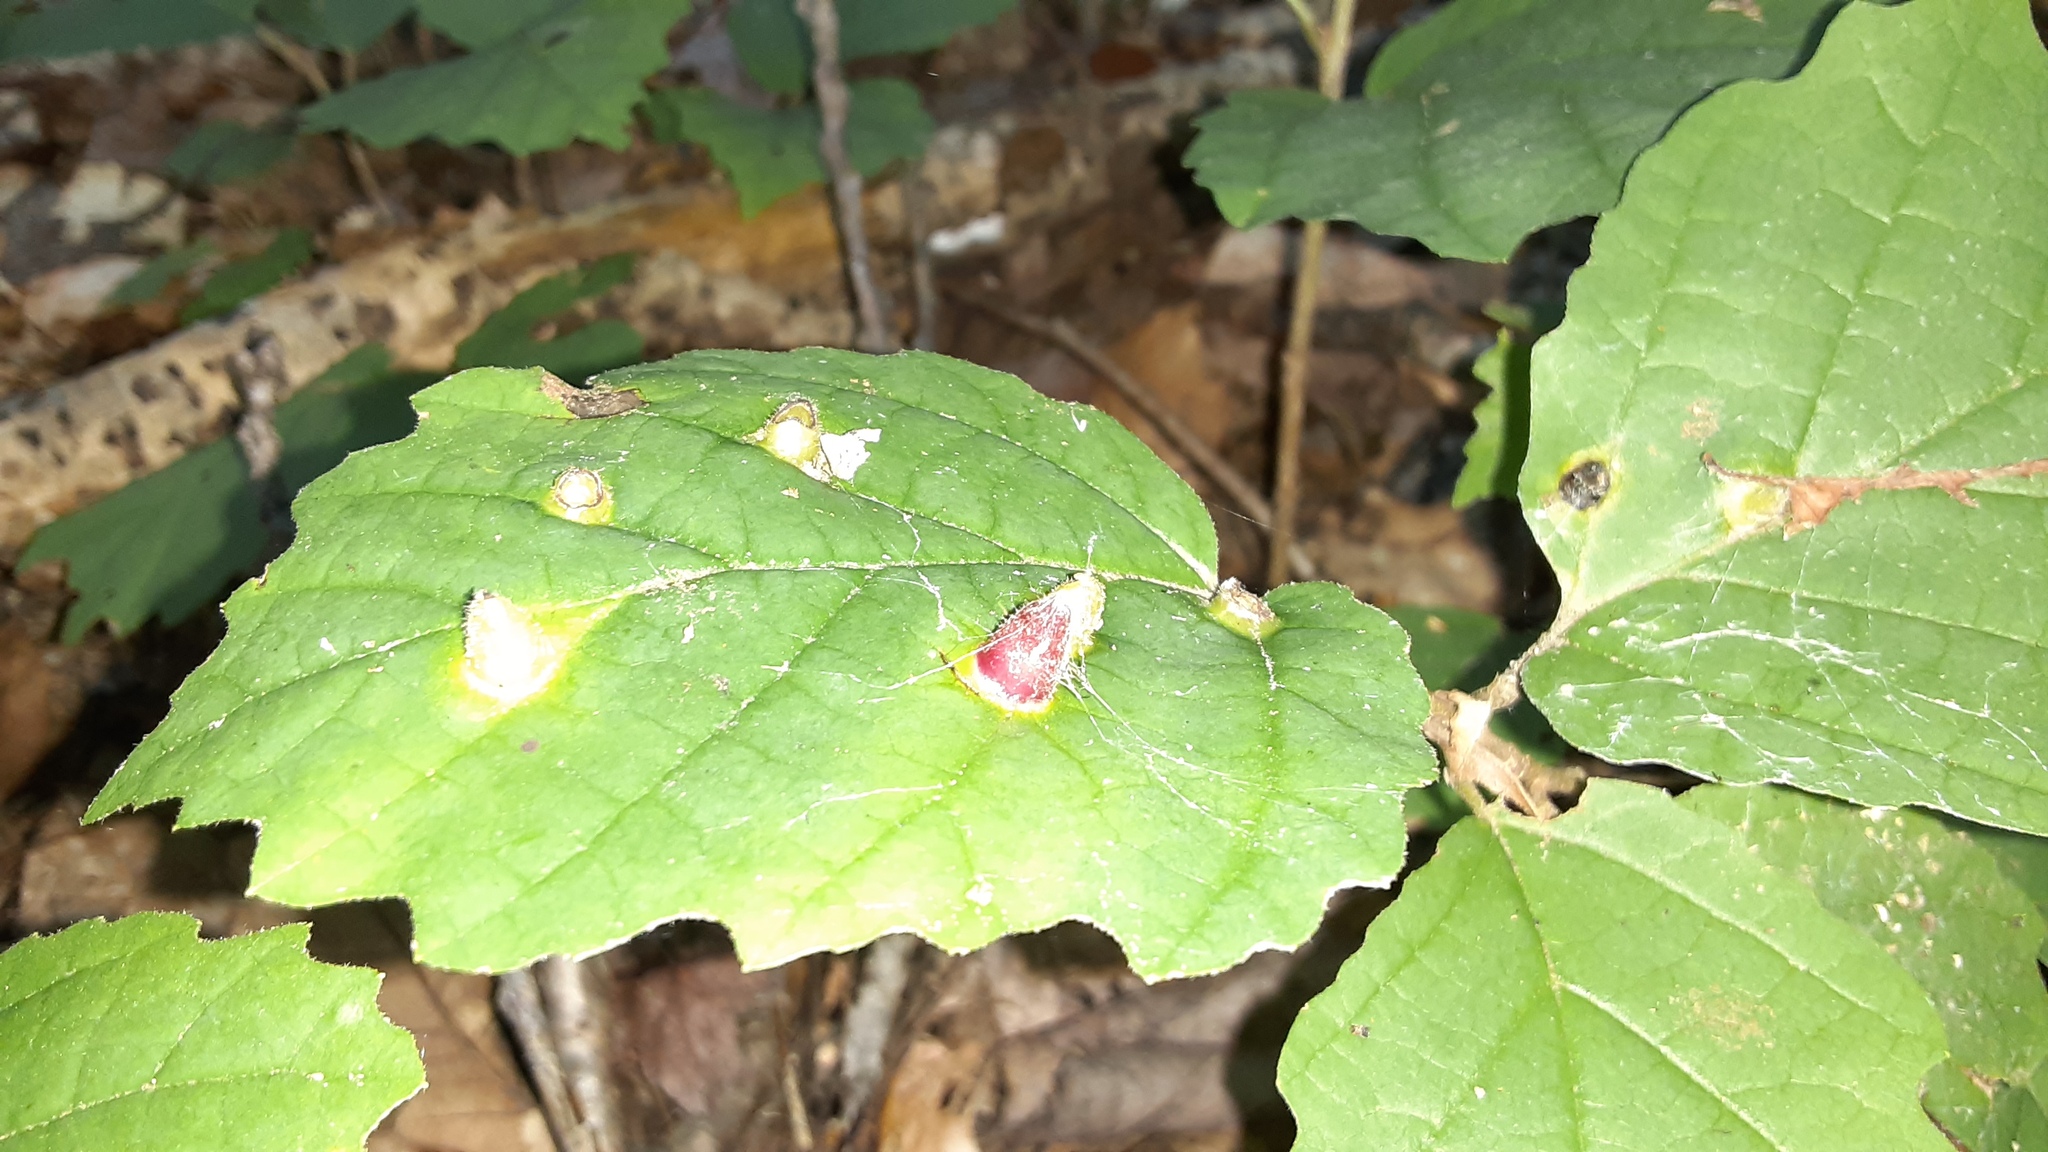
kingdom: Animalia
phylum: Arthropoda
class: Insecta
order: Hemiptera
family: Aphididae
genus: Hormaphis
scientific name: Hormaphis hamamelidis
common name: Witch-hazel cone gall aphid
